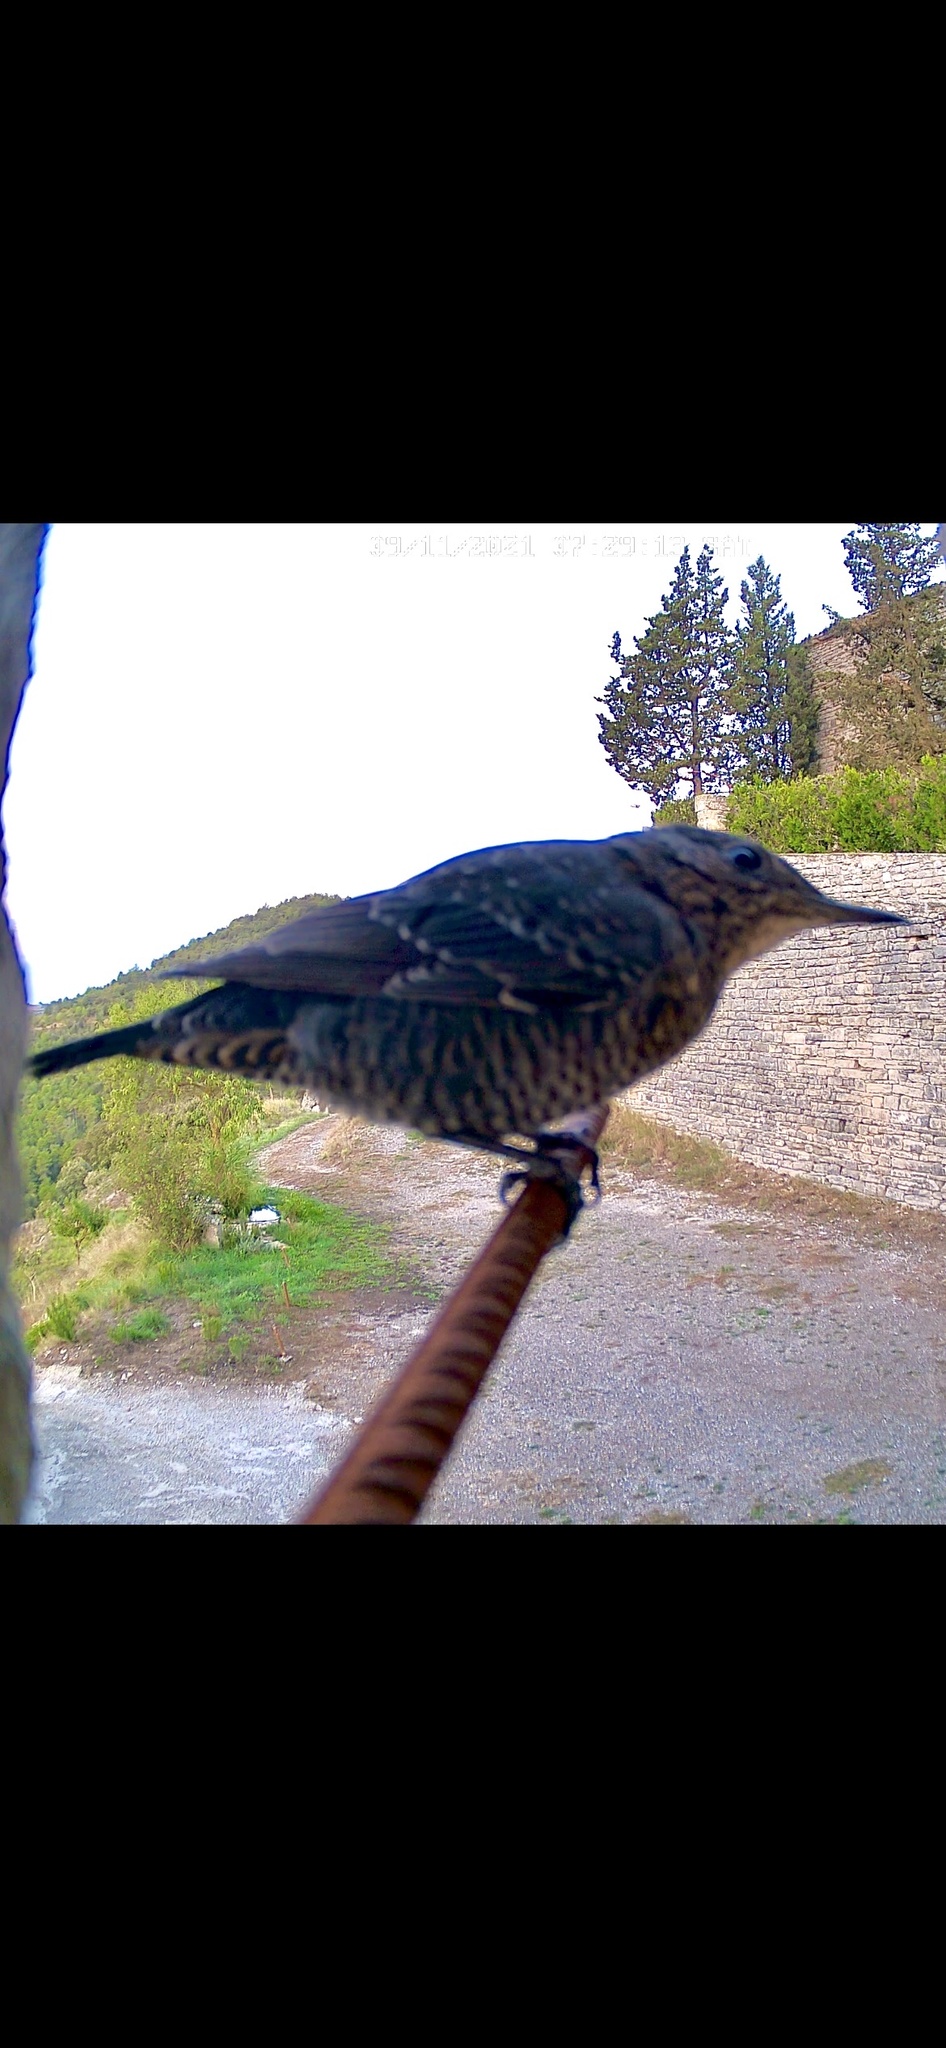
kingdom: Animalia
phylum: Chordata
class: Aves
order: Passeriformes
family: Muscicapidae
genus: Monticola
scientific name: Monticola solitarius
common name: Blue rock thrush
